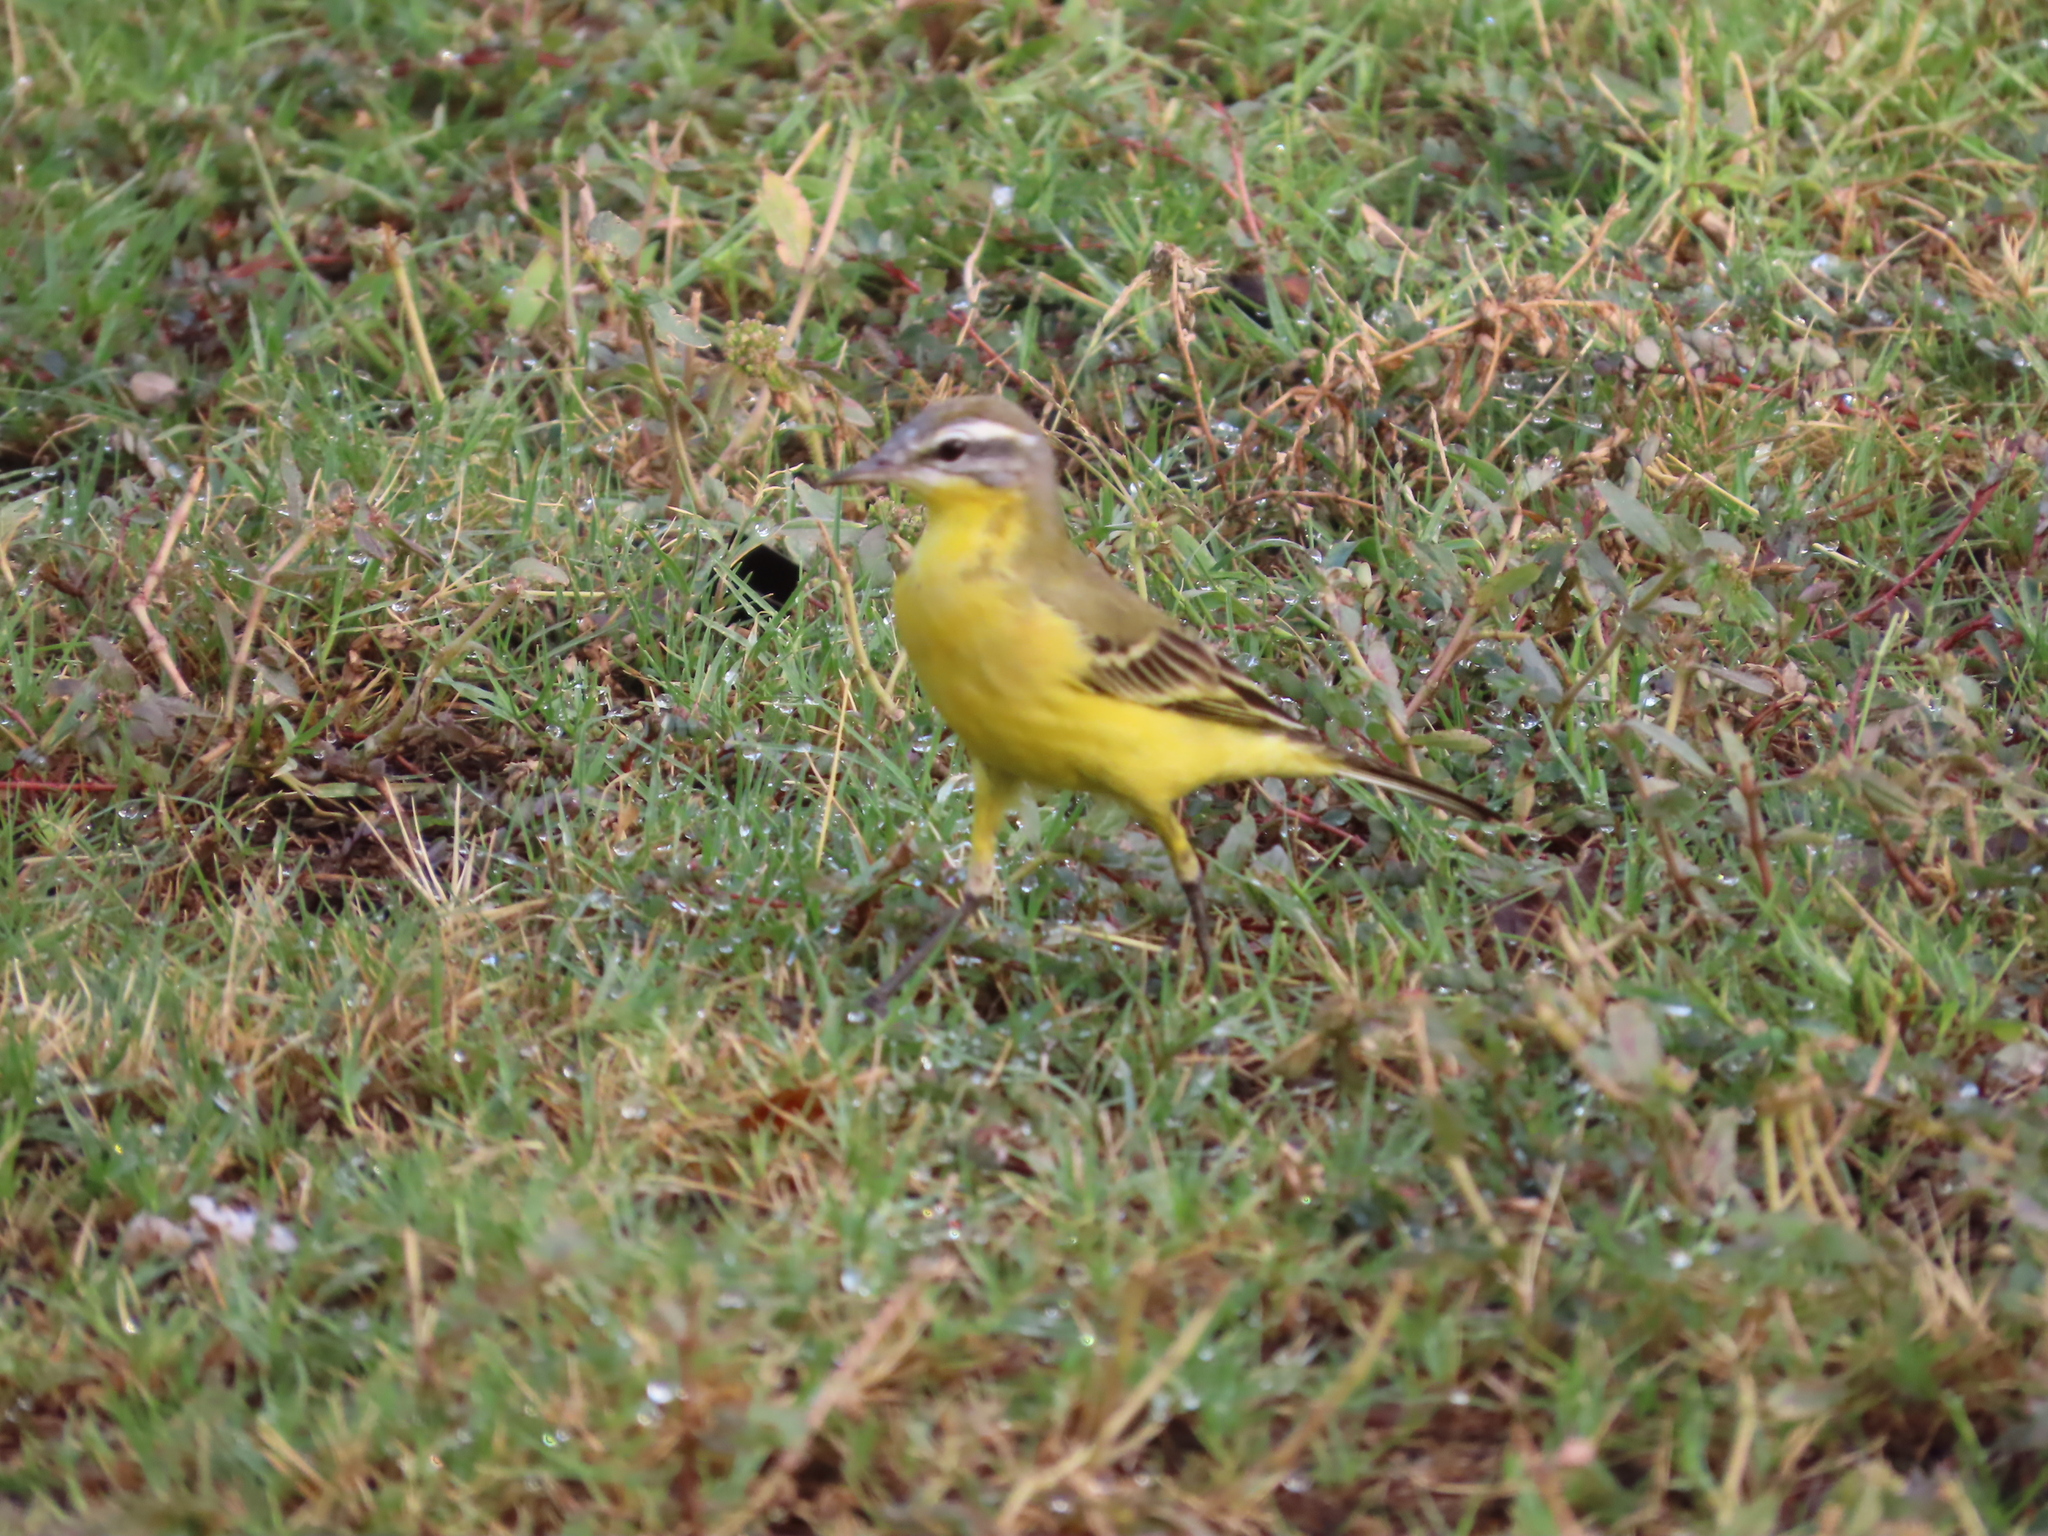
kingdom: Animalia
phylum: Chordata
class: Aves
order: Passeriformes
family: Motacillidae
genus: Motacilla
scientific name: Motacilla flava
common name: Western yellow wagtail
